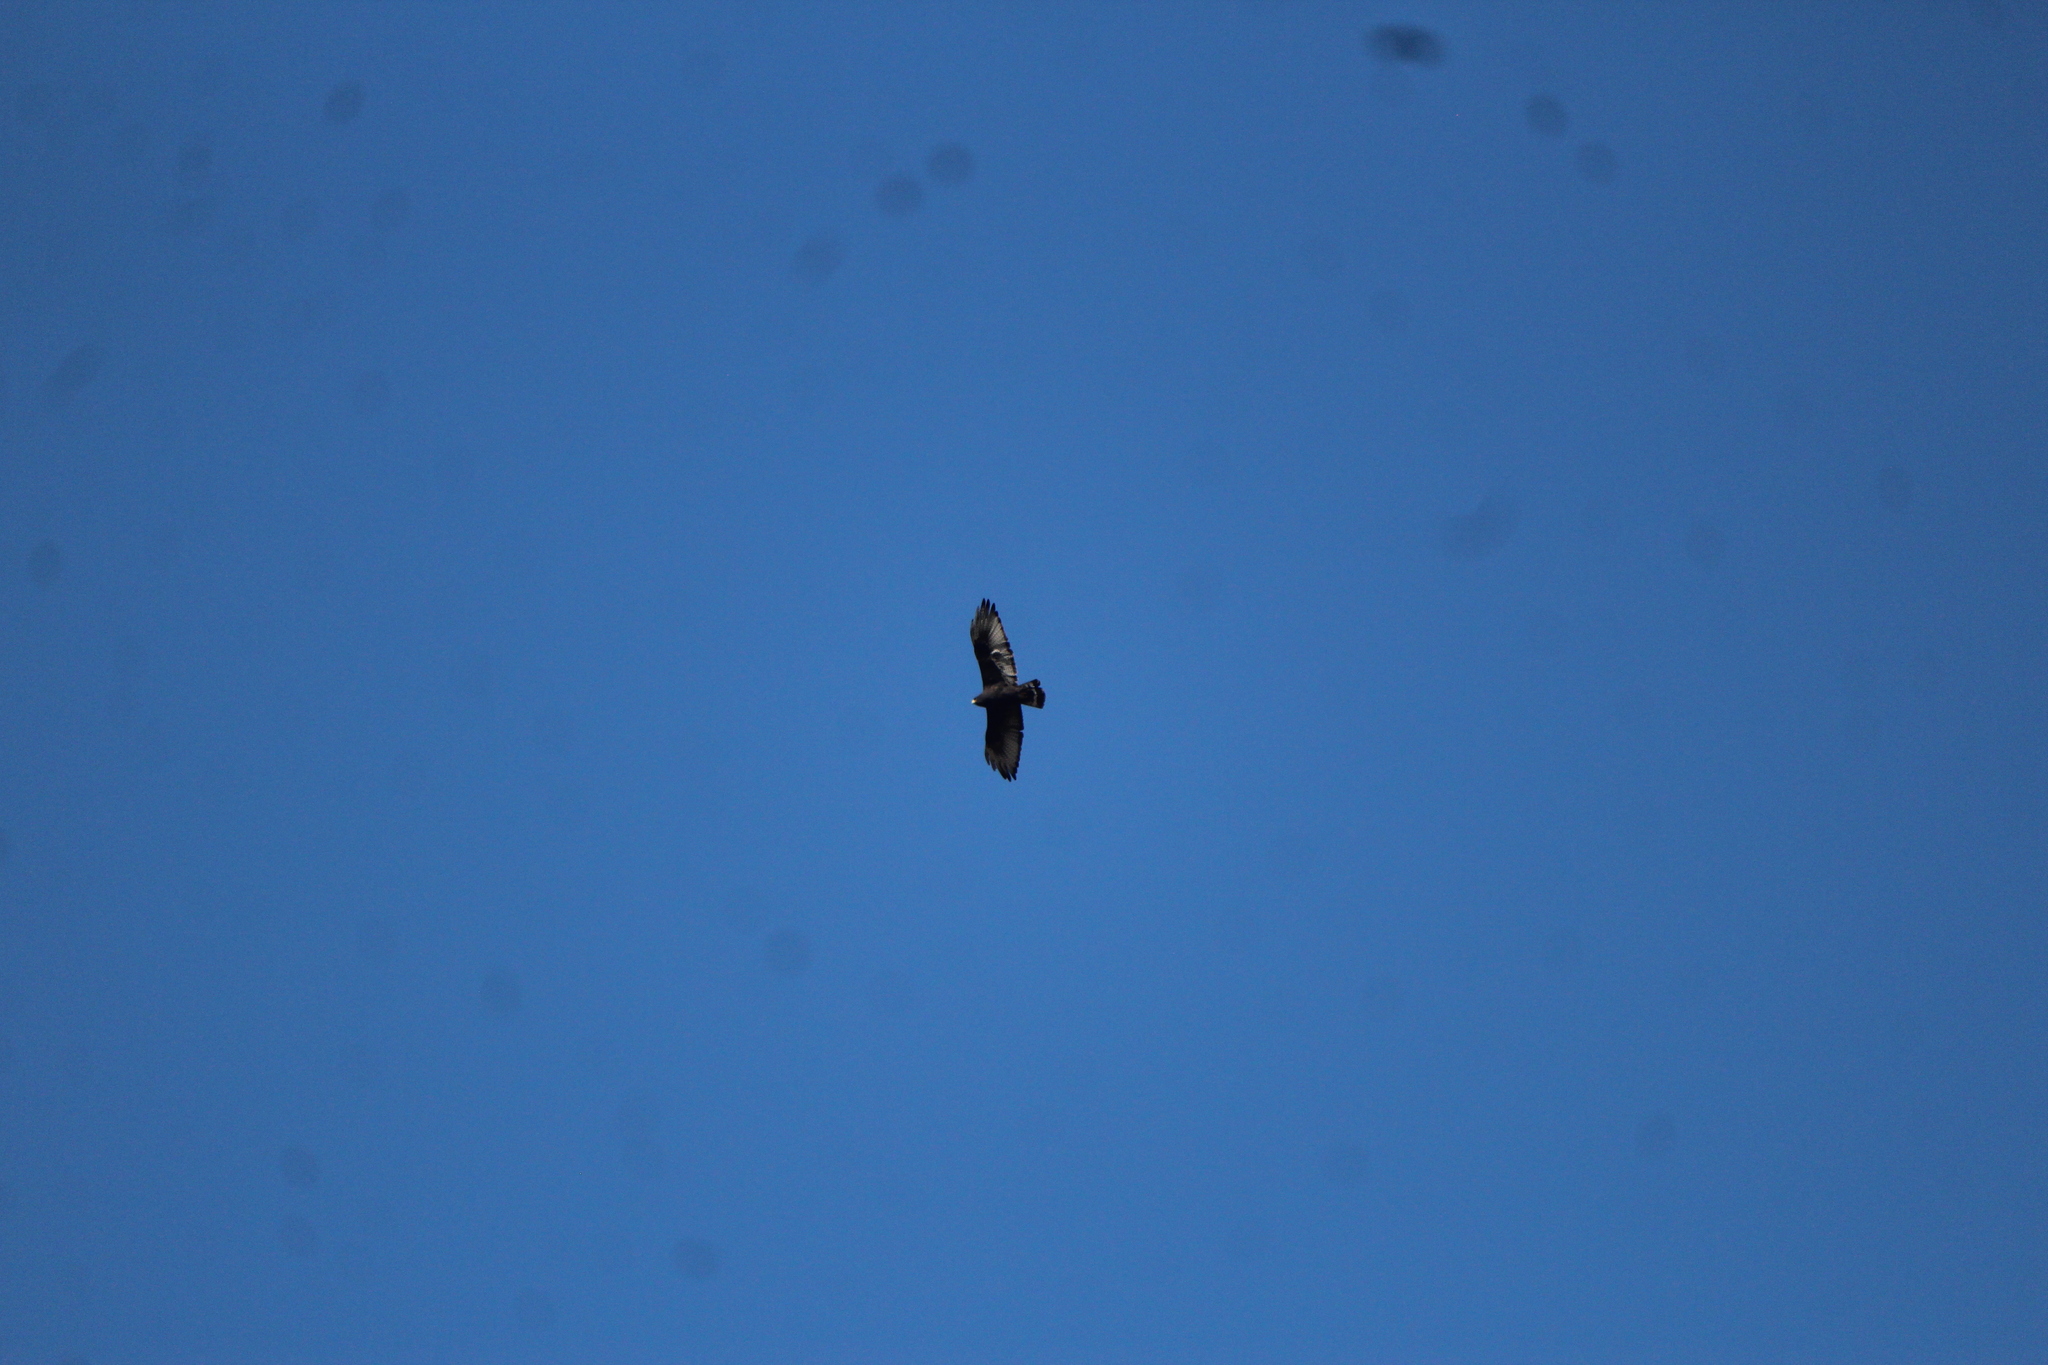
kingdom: Animalia
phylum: Chordata
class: Aves
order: Accipitriformes
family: Accipitridae
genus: Buteo
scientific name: Buteo albonotatus
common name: Zone-tailed hawk
